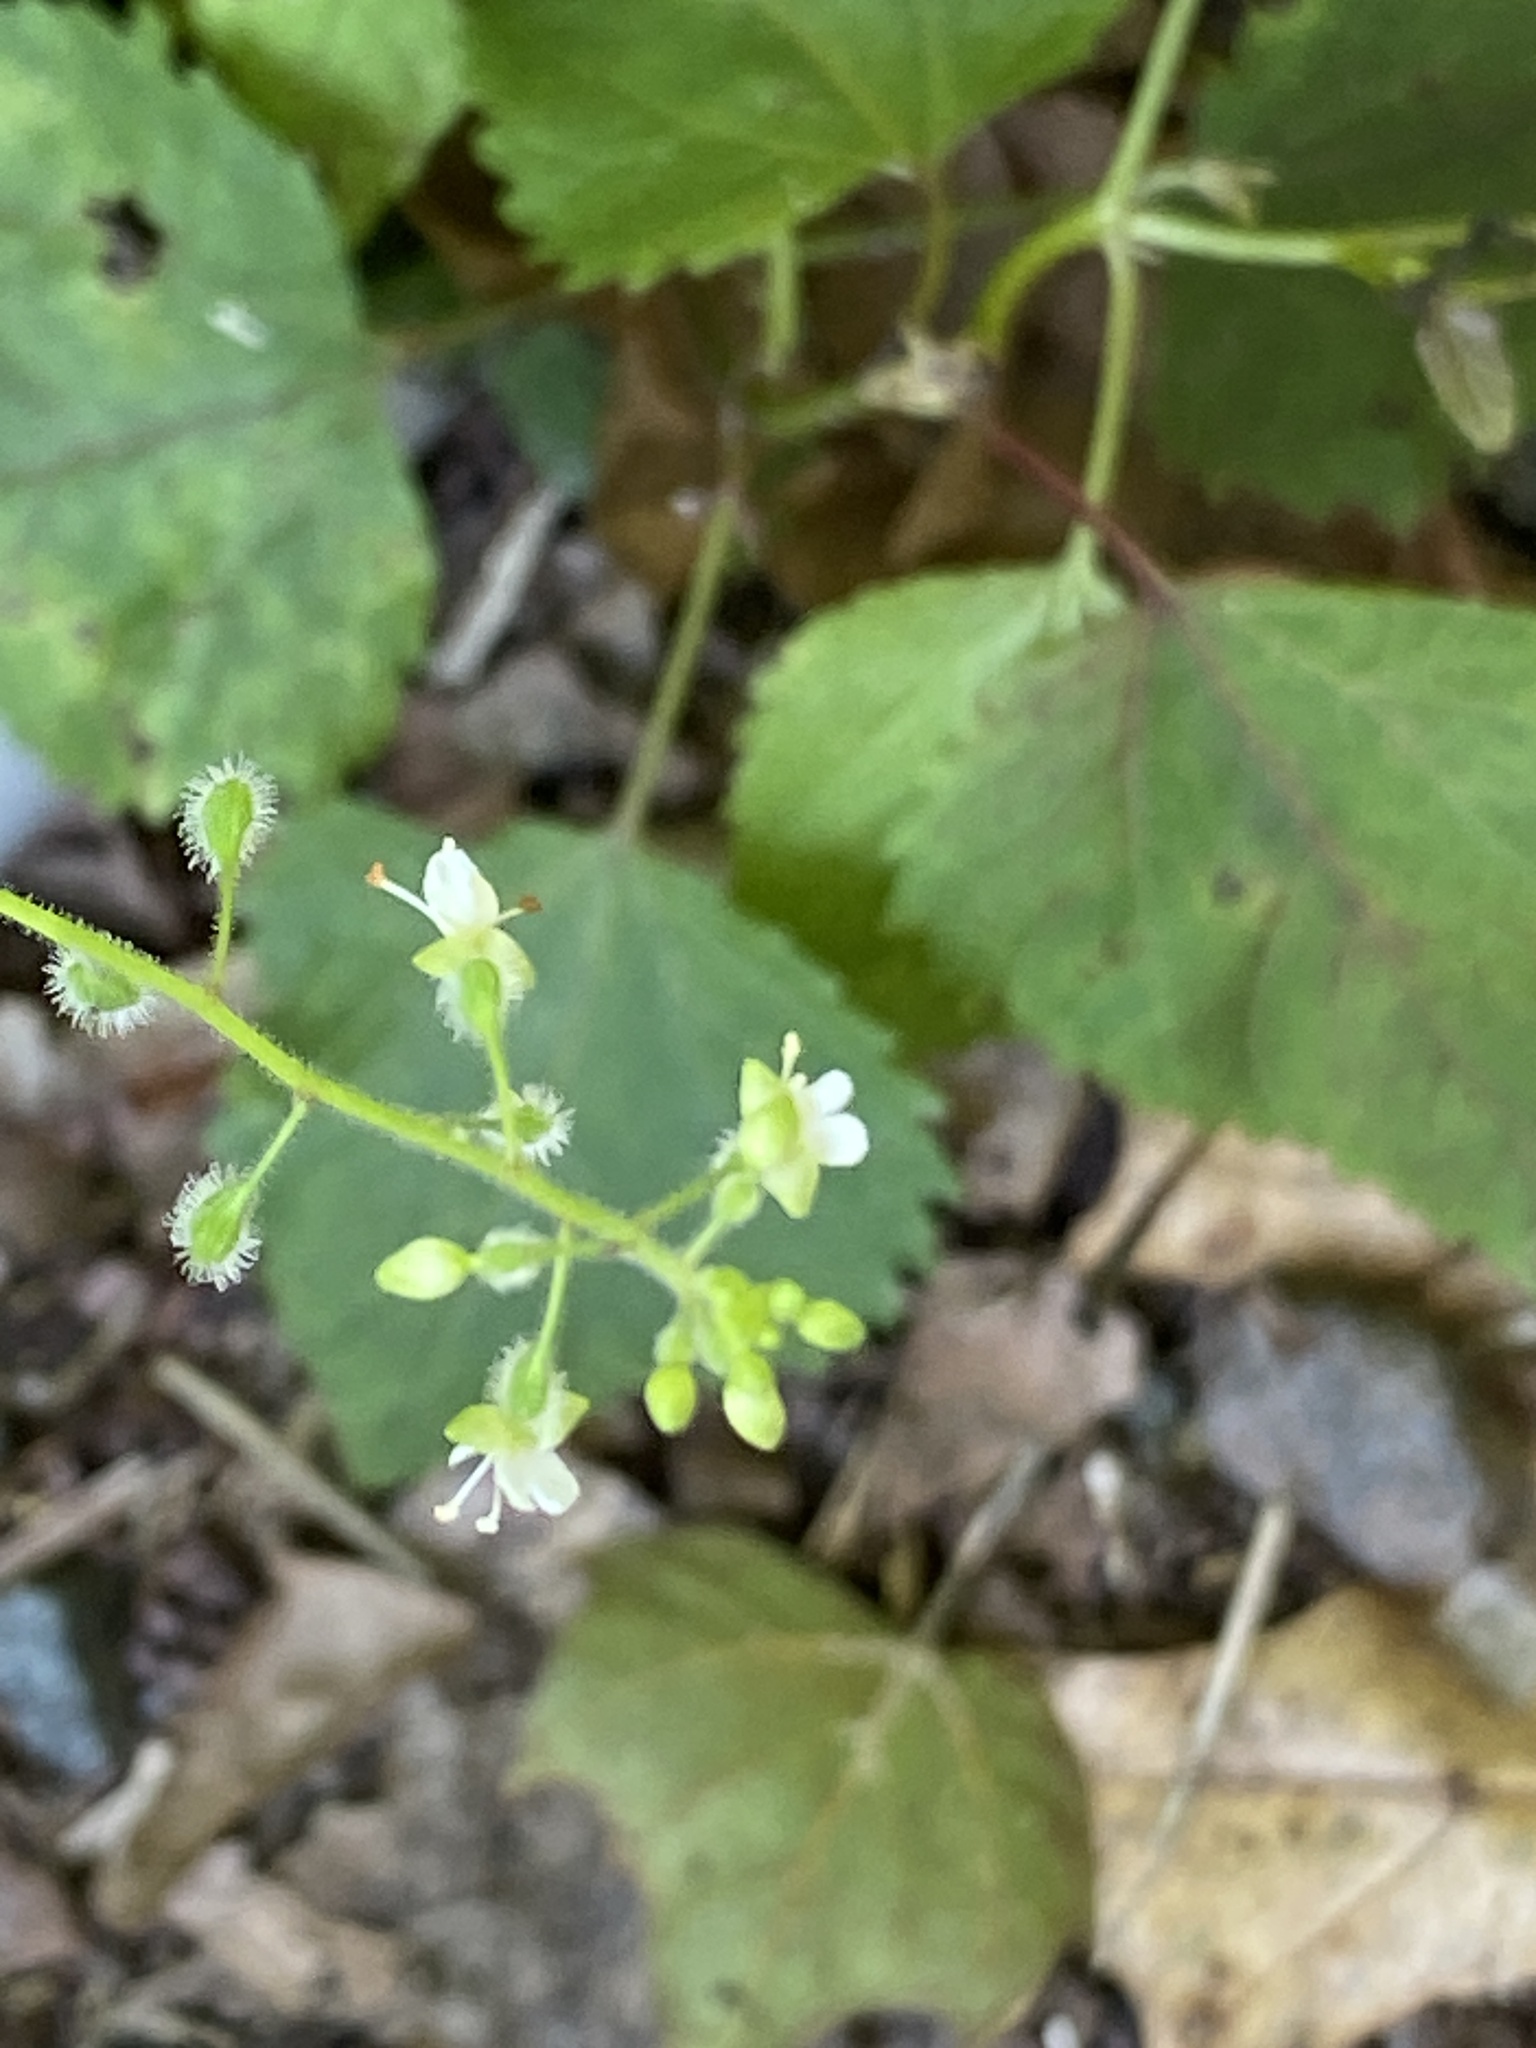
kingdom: Plantae
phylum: Tracheophyta
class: Magnoliopsida
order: Myrtales
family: Onagraceae
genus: Circaea
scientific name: Circaea canadensis
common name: Broad-leaved enchanter's nightshade
